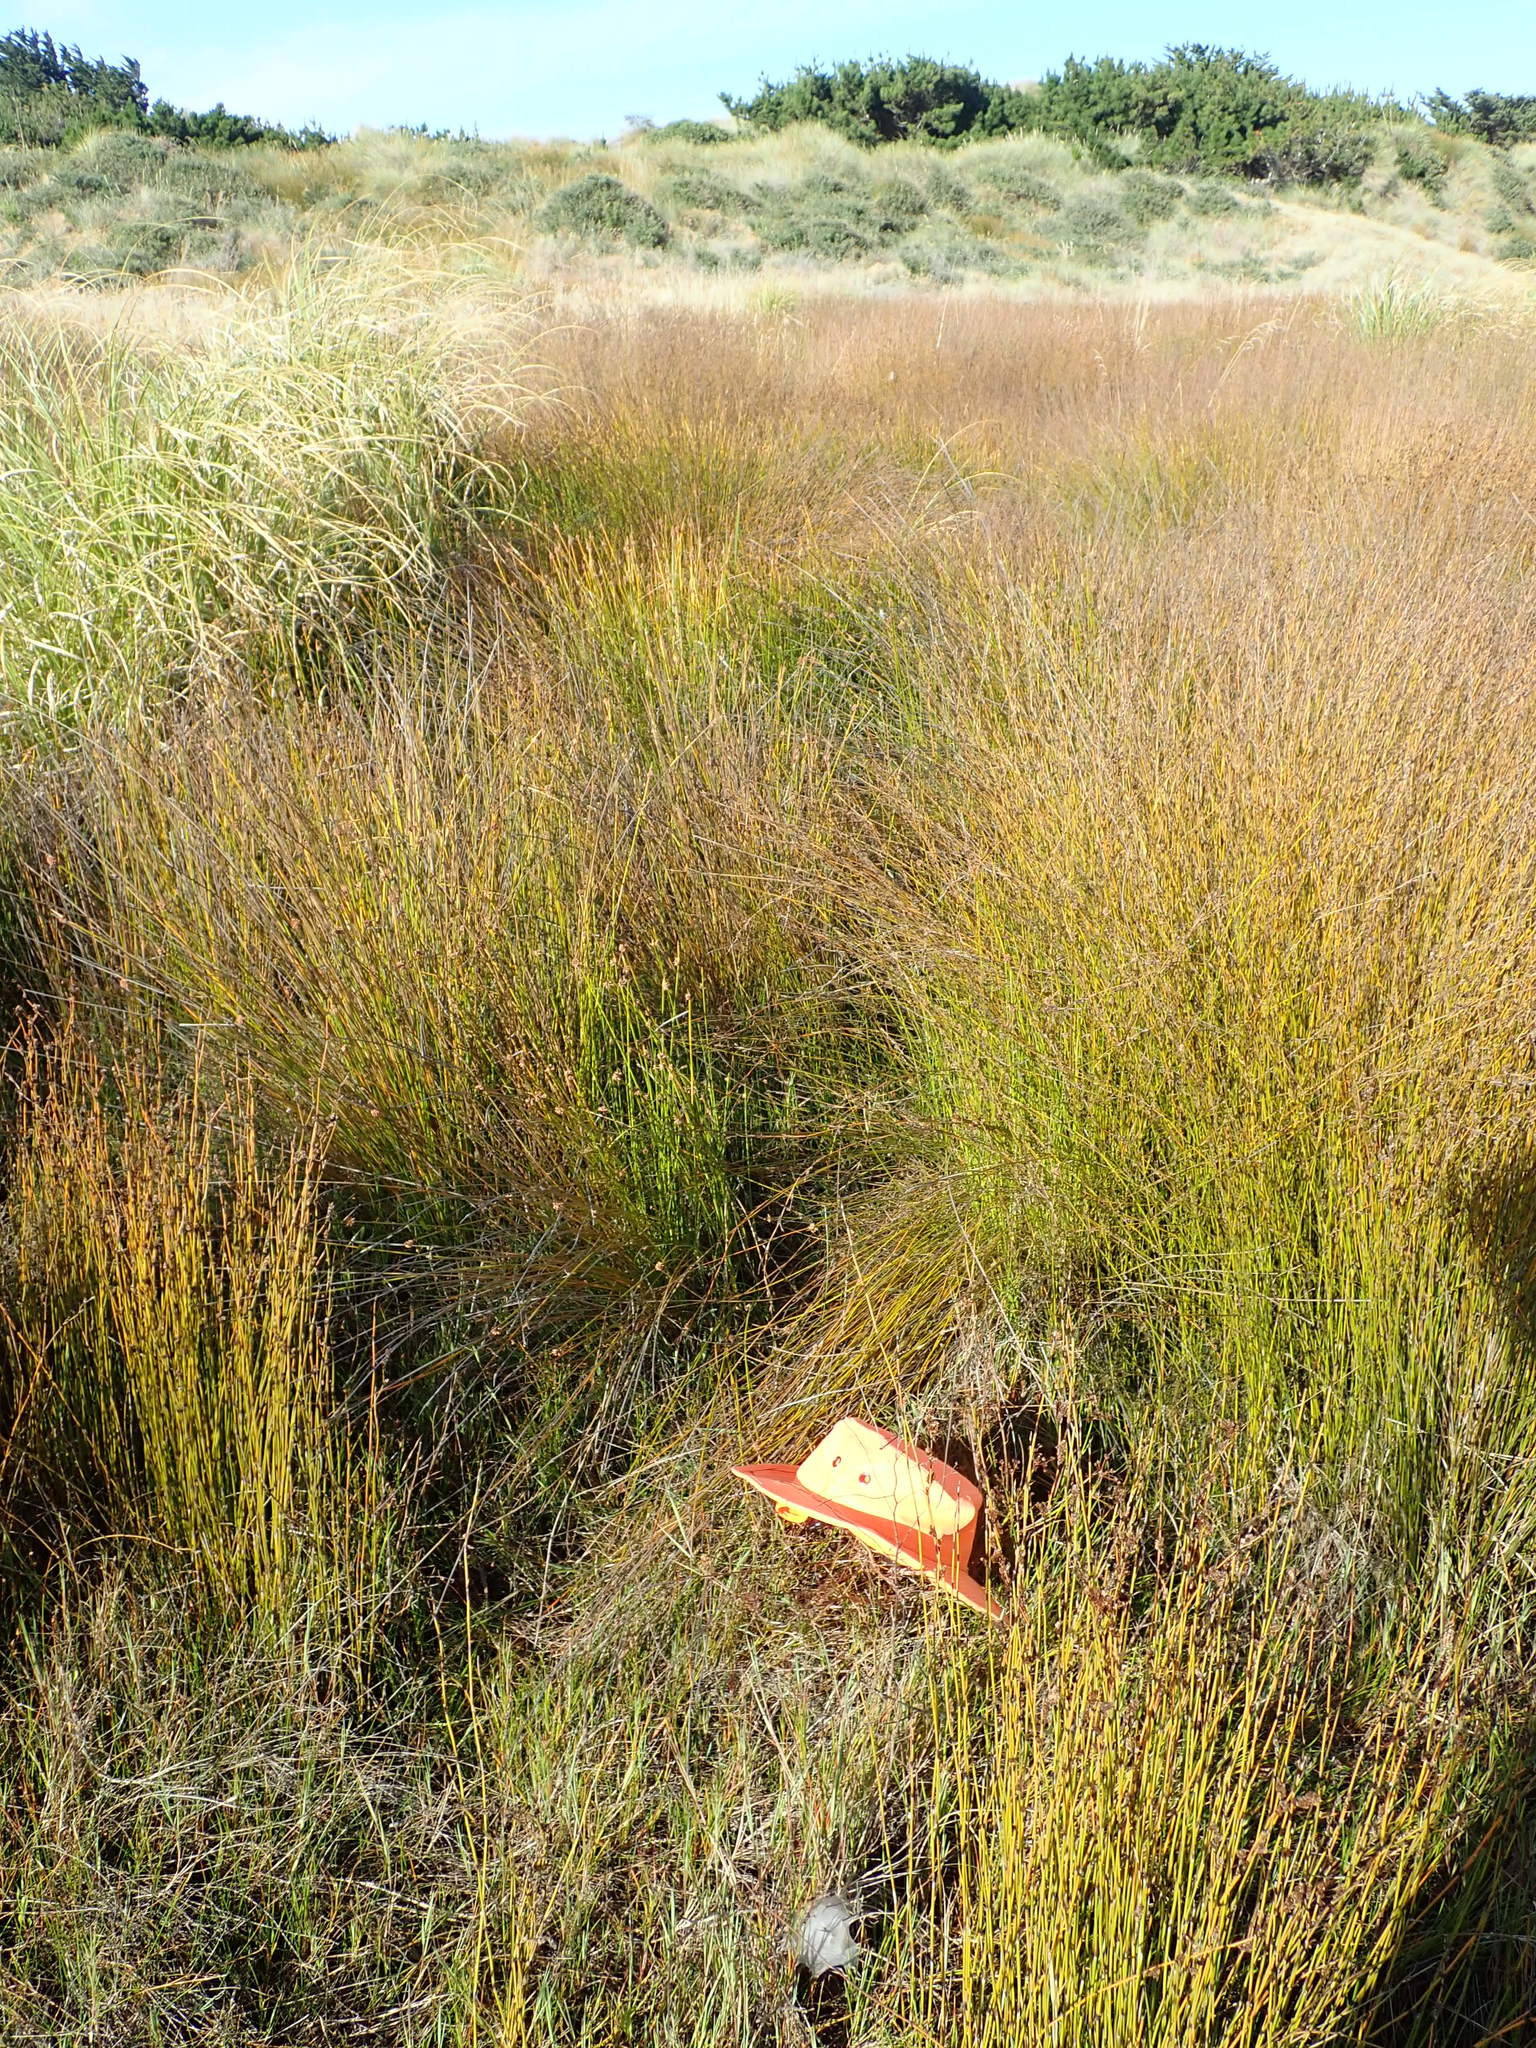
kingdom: Animalia
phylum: Arthropoda
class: Arachnida
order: Araneae
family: Tetragnathidae
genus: Leucauge
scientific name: Leucauge dromedaria
